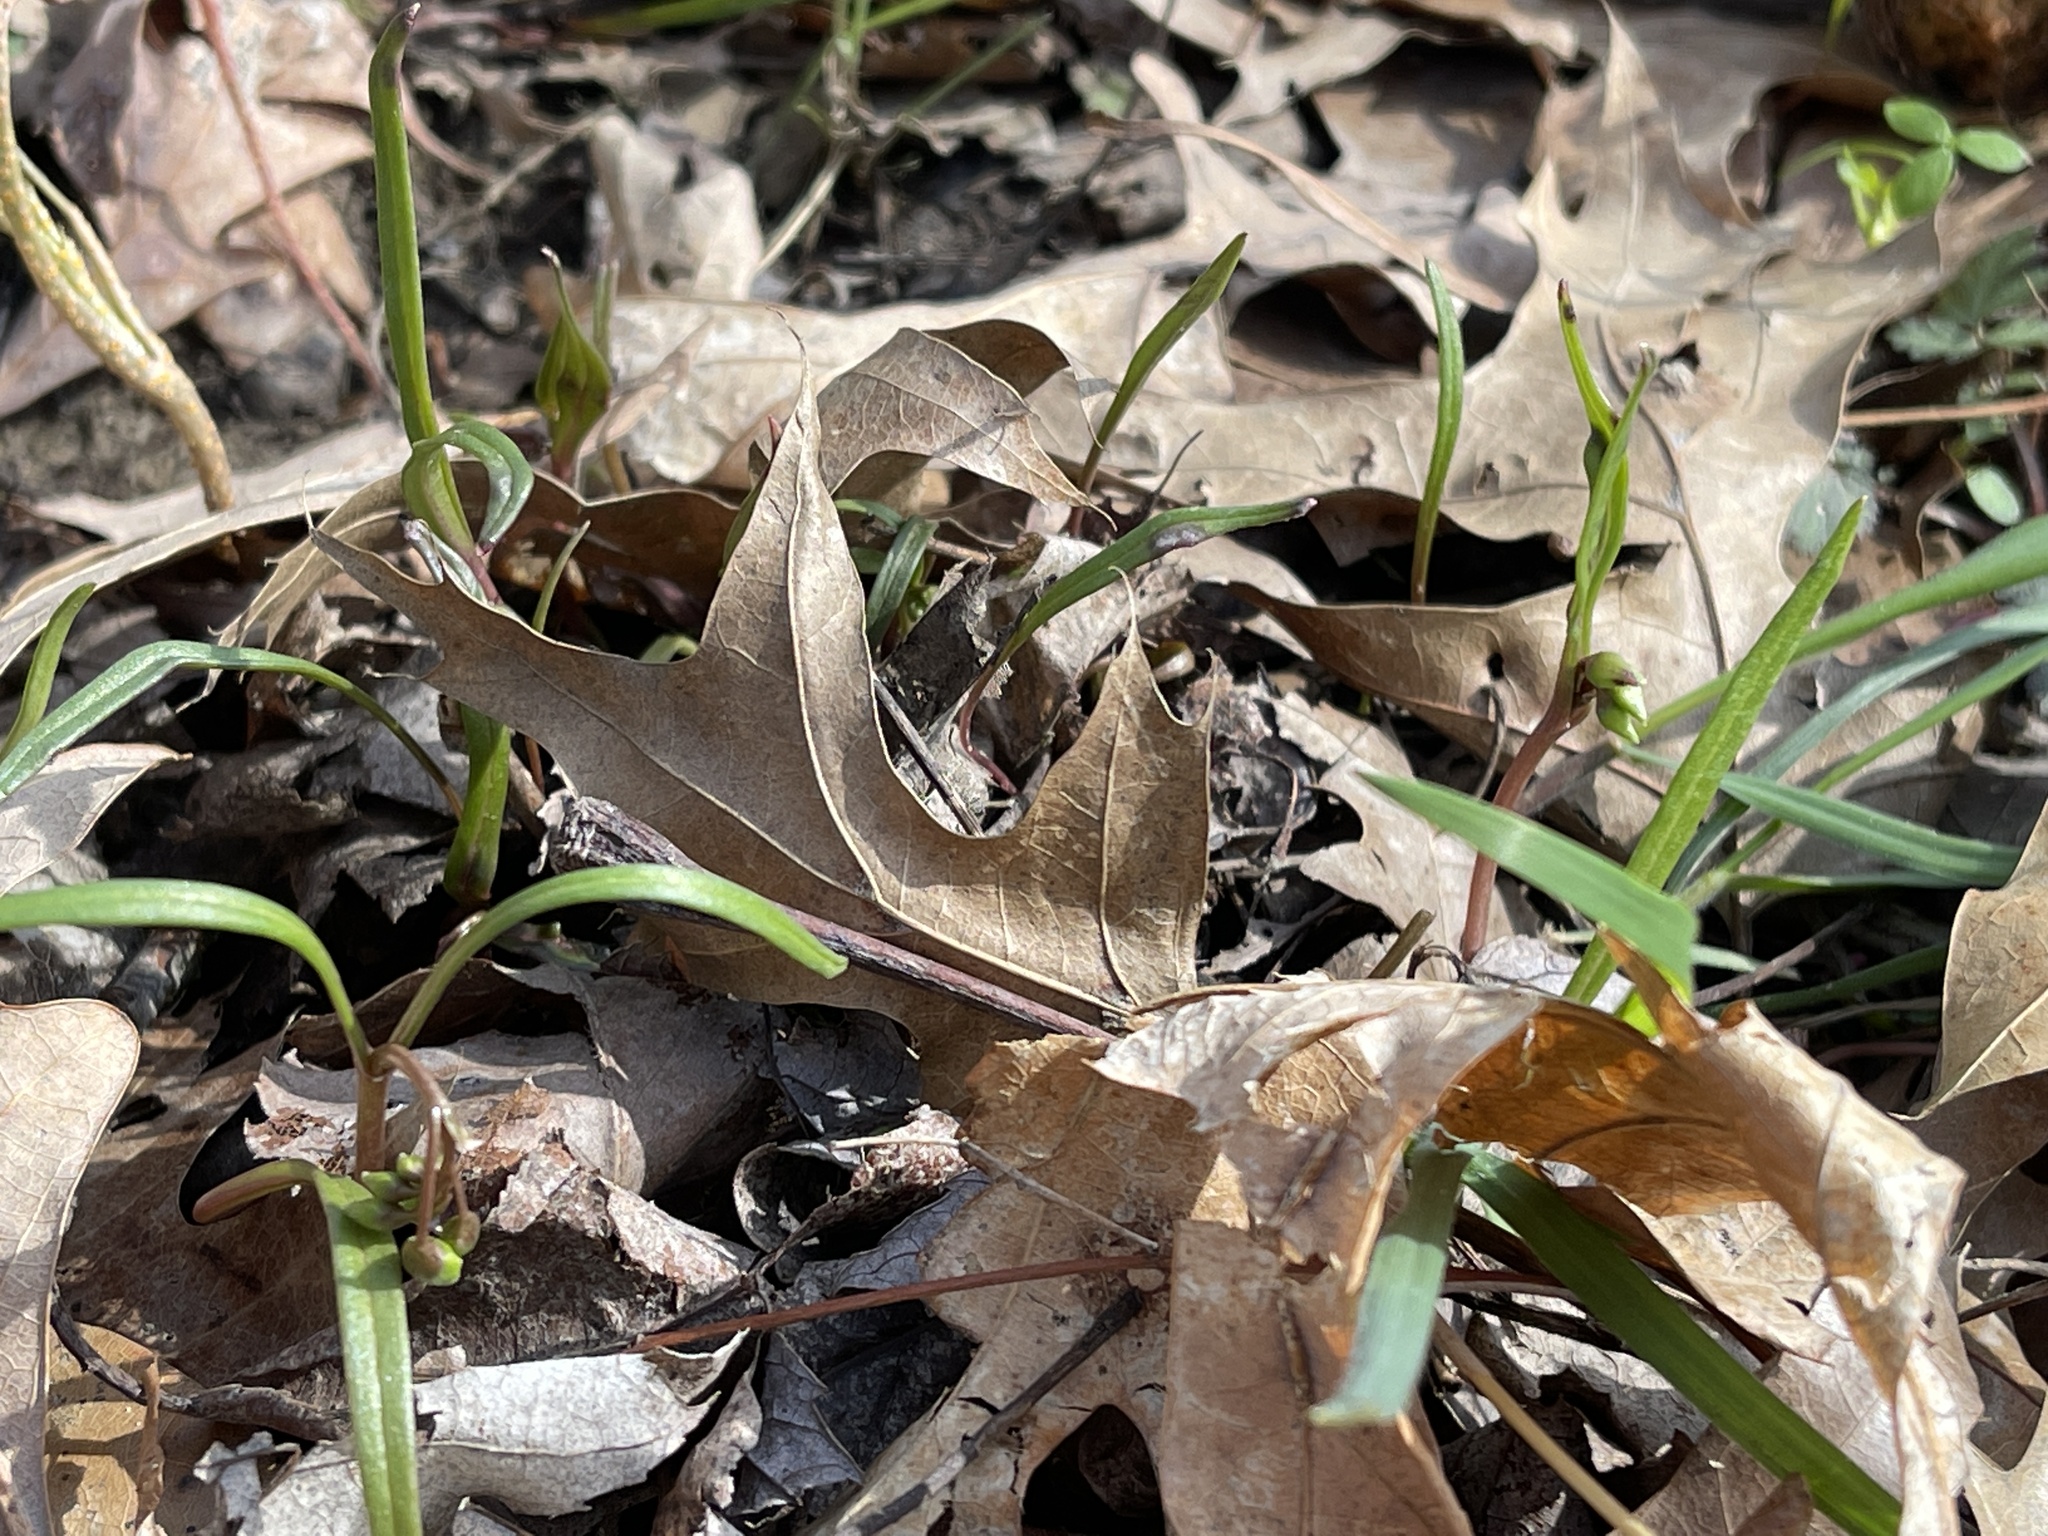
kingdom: Plantae
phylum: Tracheophyta
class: Magnoliopsida
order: Caryophyllales
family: Montiaceae
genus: Claytonia
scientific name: Claytonia virginica
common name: Virginia springbeauty
